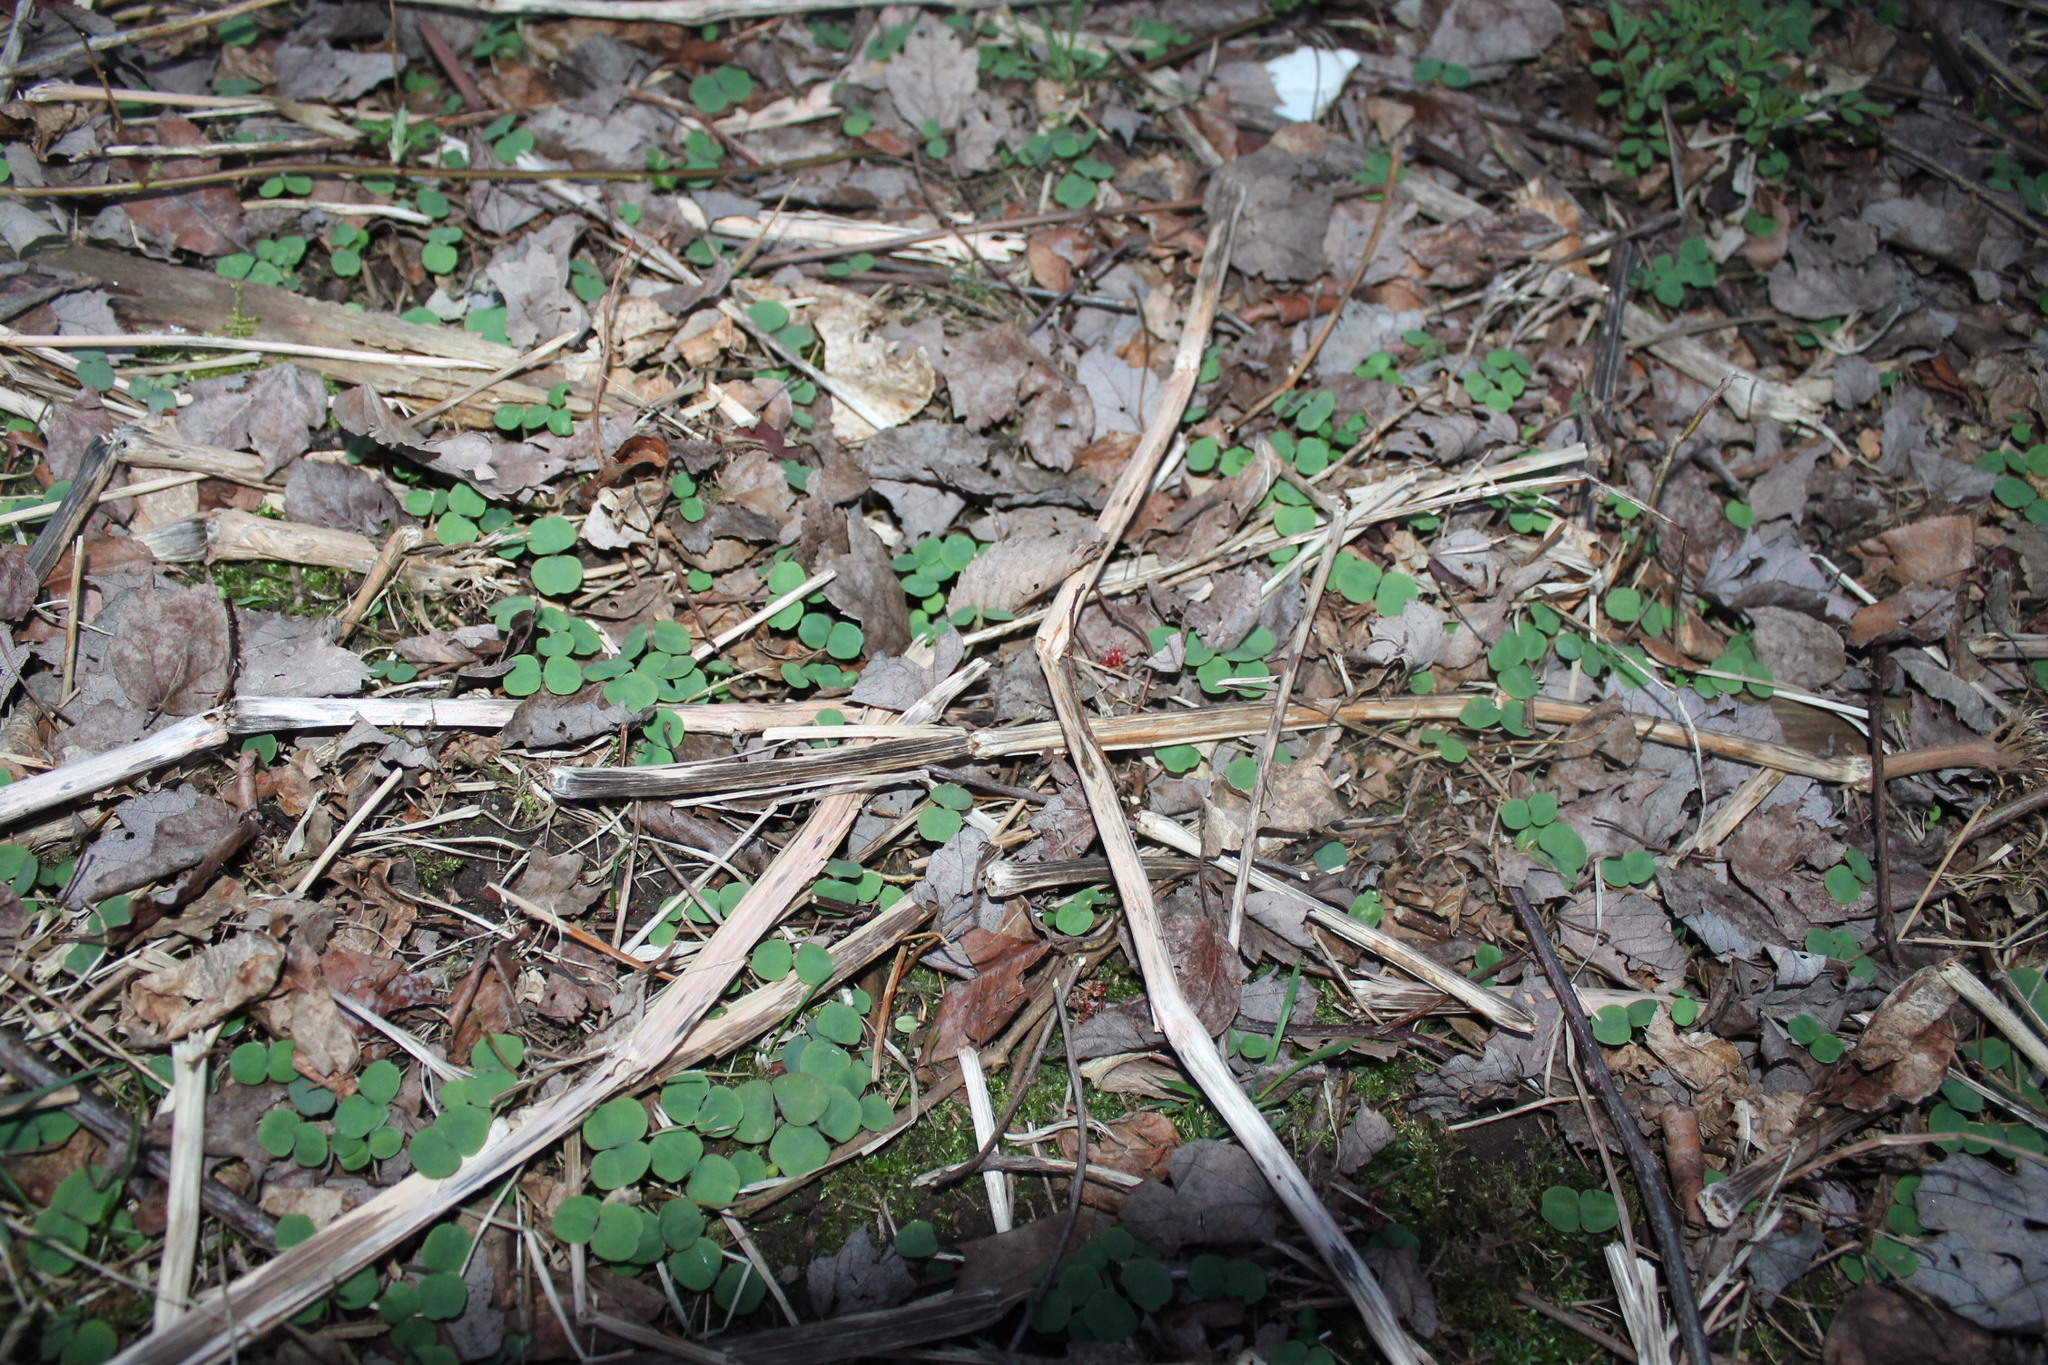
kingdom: Plantae
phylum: Tracheophyta
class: Magnoliopsida
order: Ericales
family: Balsaminaceae
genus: Impatiens
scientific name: Impatiens capensis
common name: Orange balsam
